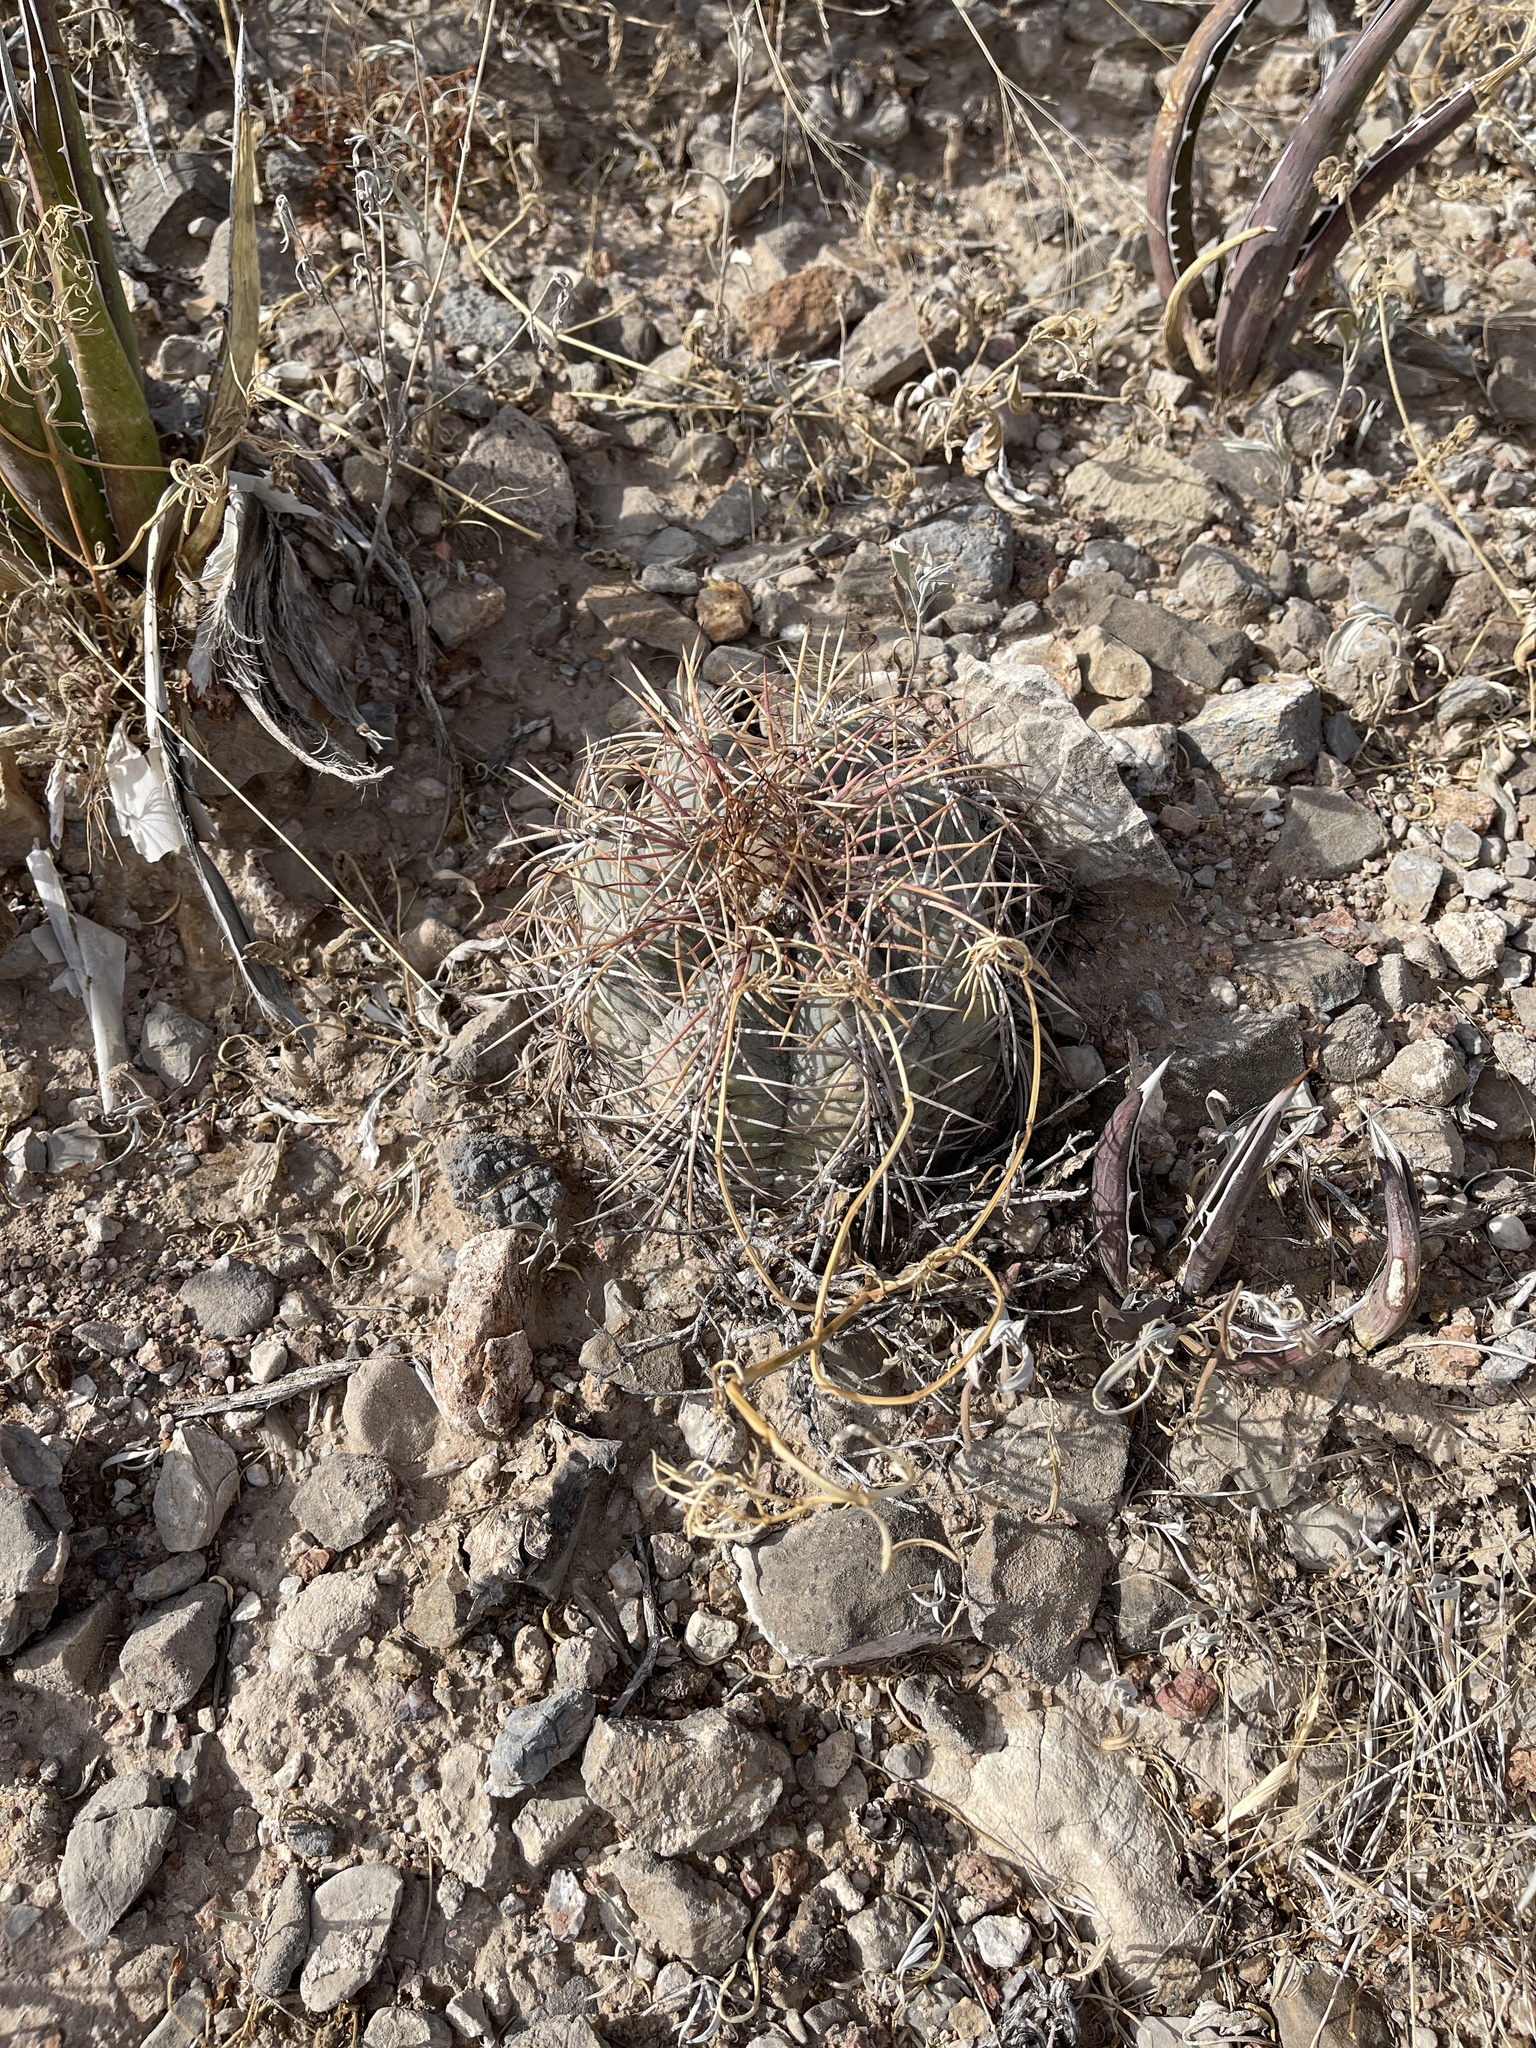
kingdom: Plantae
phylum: Tracheophyta
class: Magnoliopsida
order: Caryophyllales
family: Cactaceae
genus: Echinocactus
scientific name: Echinocactus horizonthalonius
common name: Devilshead
